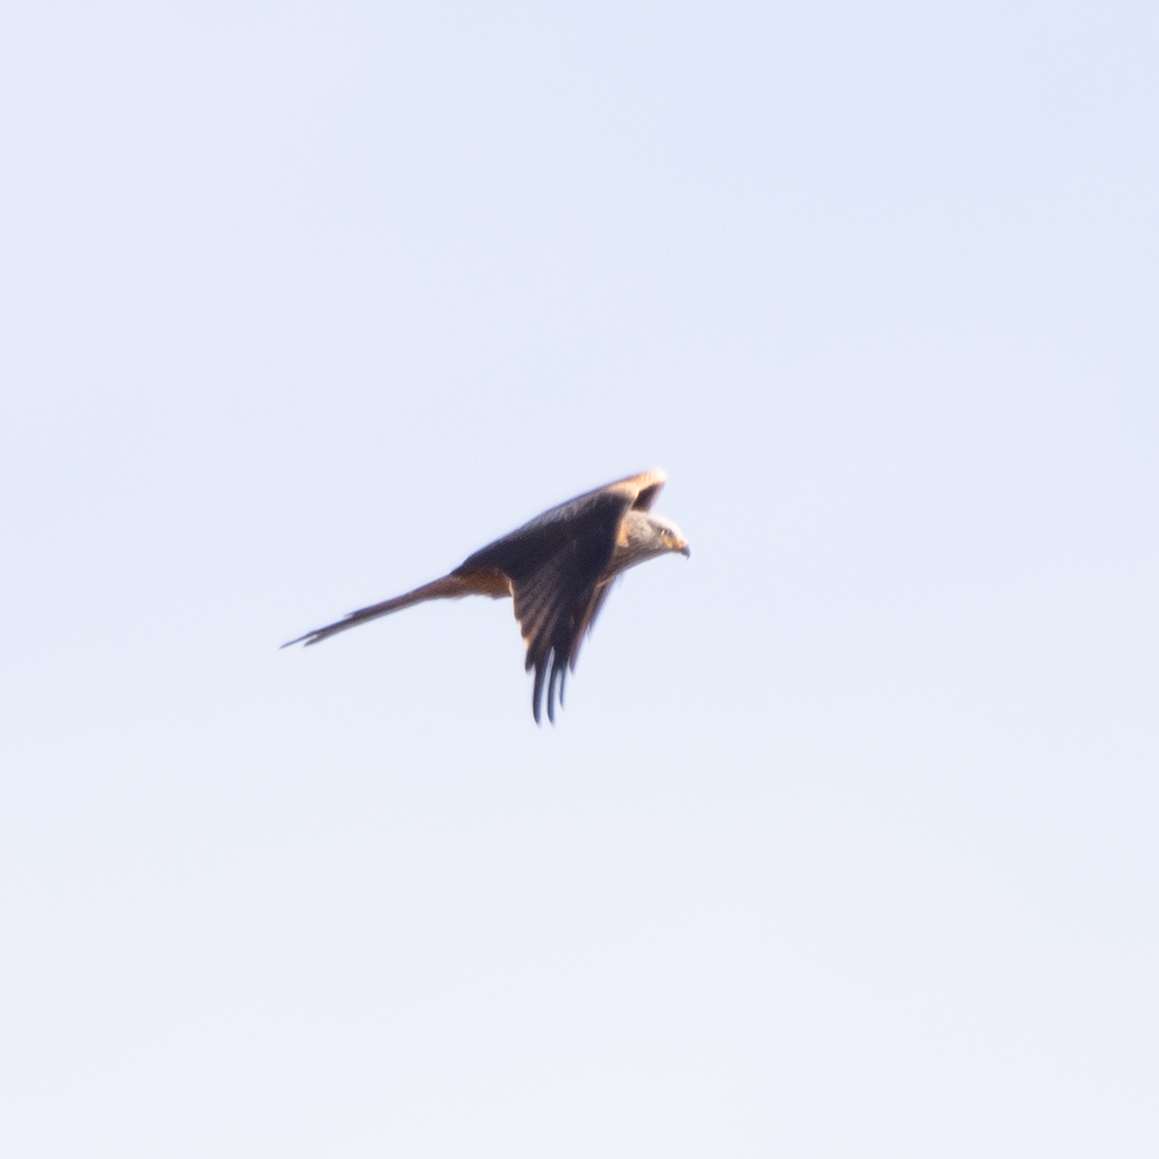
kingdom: Animalia
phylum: Chordata
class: Aves
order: Accipitriformes
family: Accipitridae
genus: Milvus
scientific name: Milvus milvus
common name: Red kite
